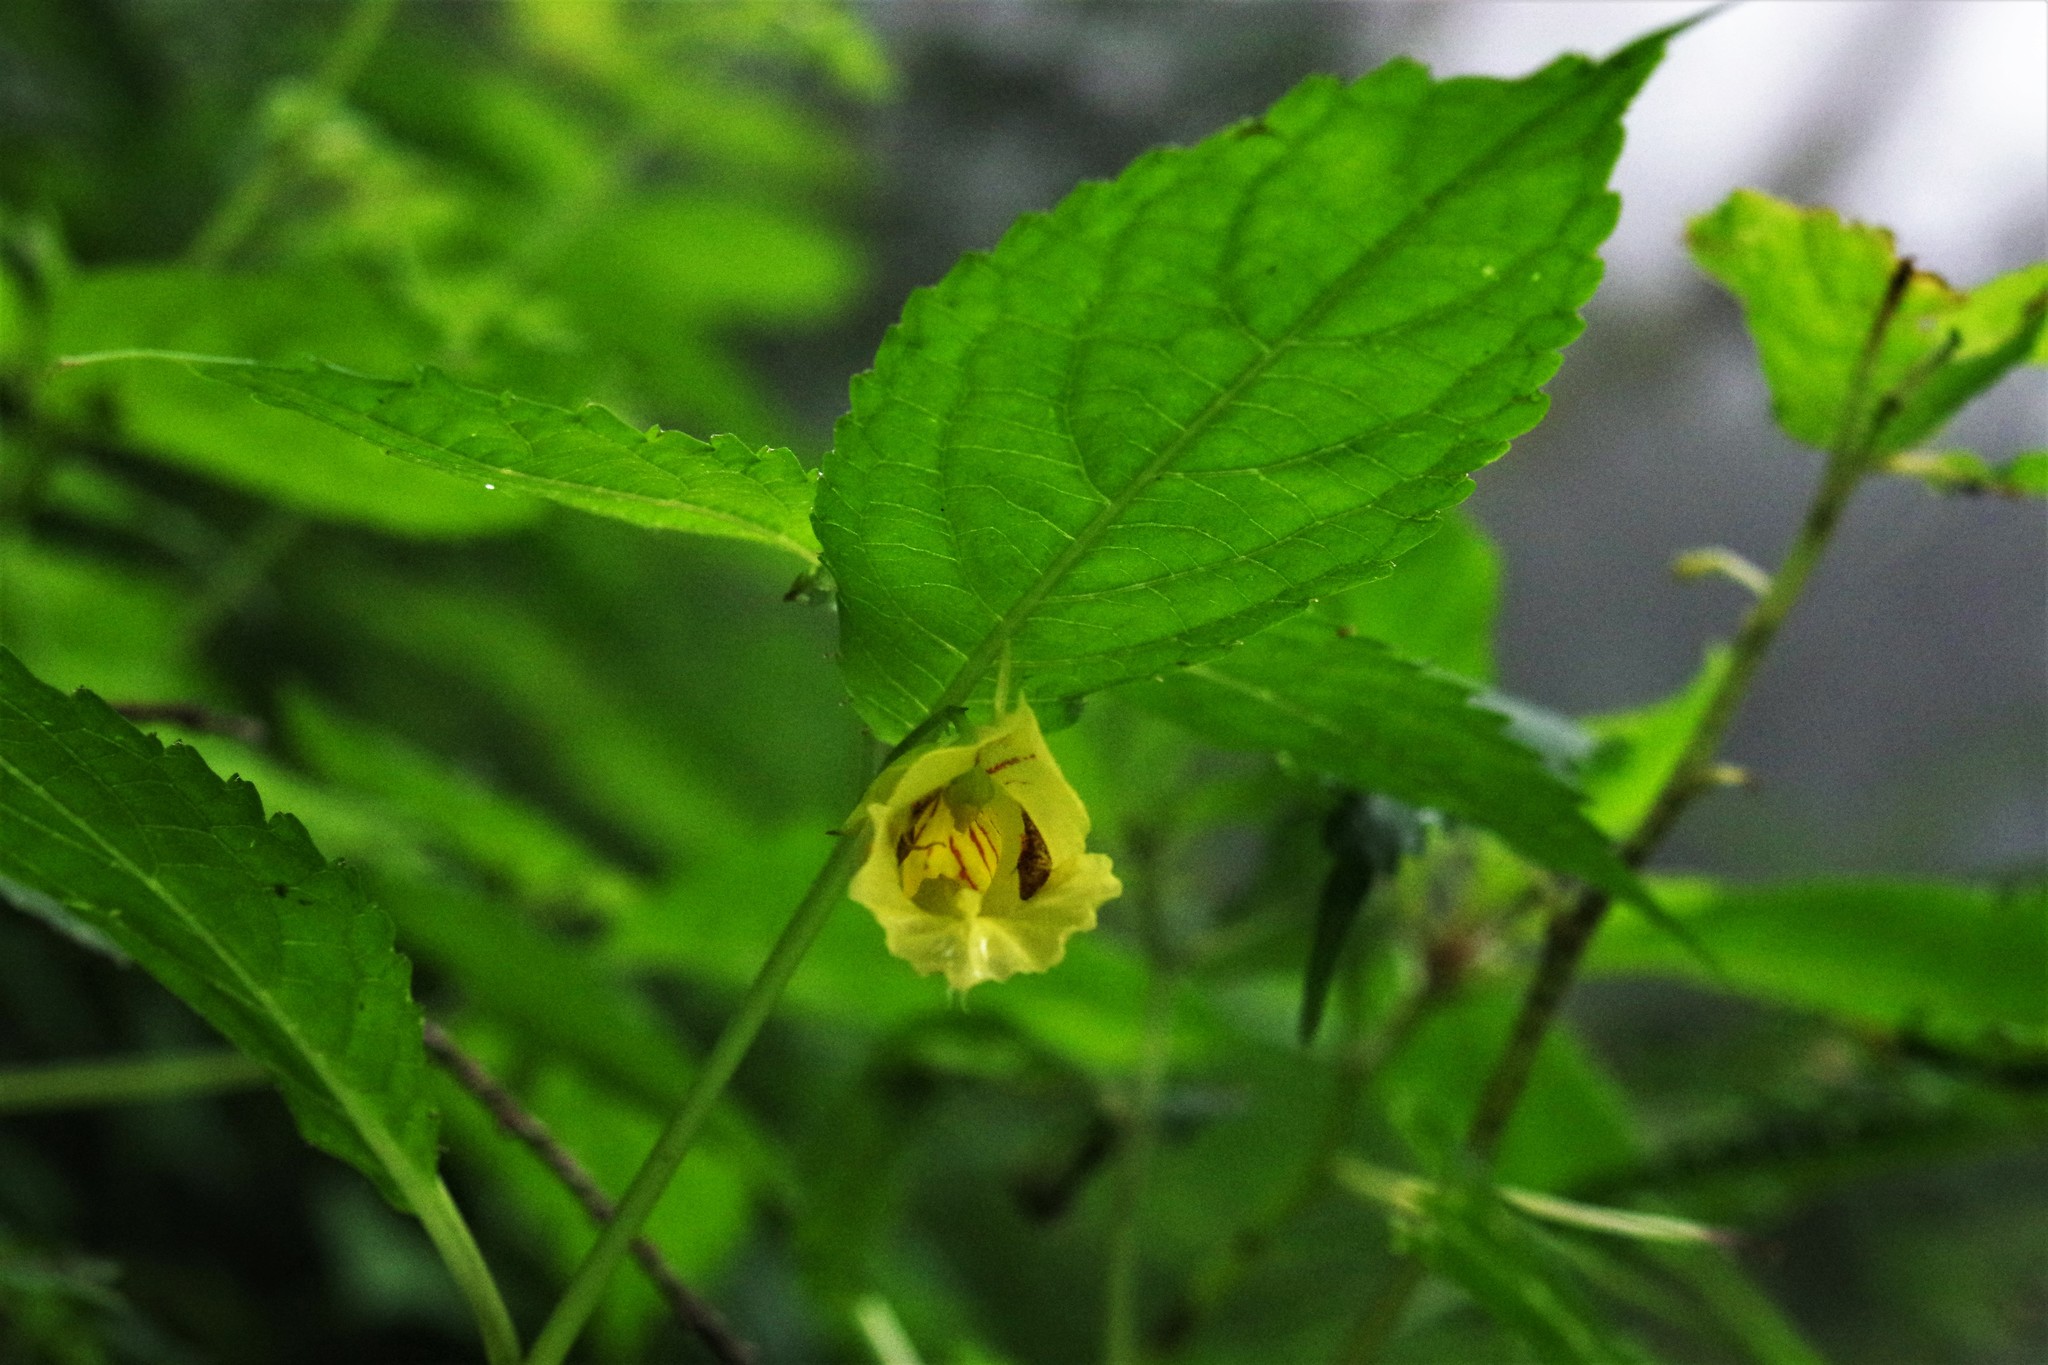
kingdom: Plantae
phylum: Tracheophyta
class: Magnoliopsida
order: Ericales
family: Balsaminaceae
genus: Impatiens
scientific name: Impatiens tayemonii
